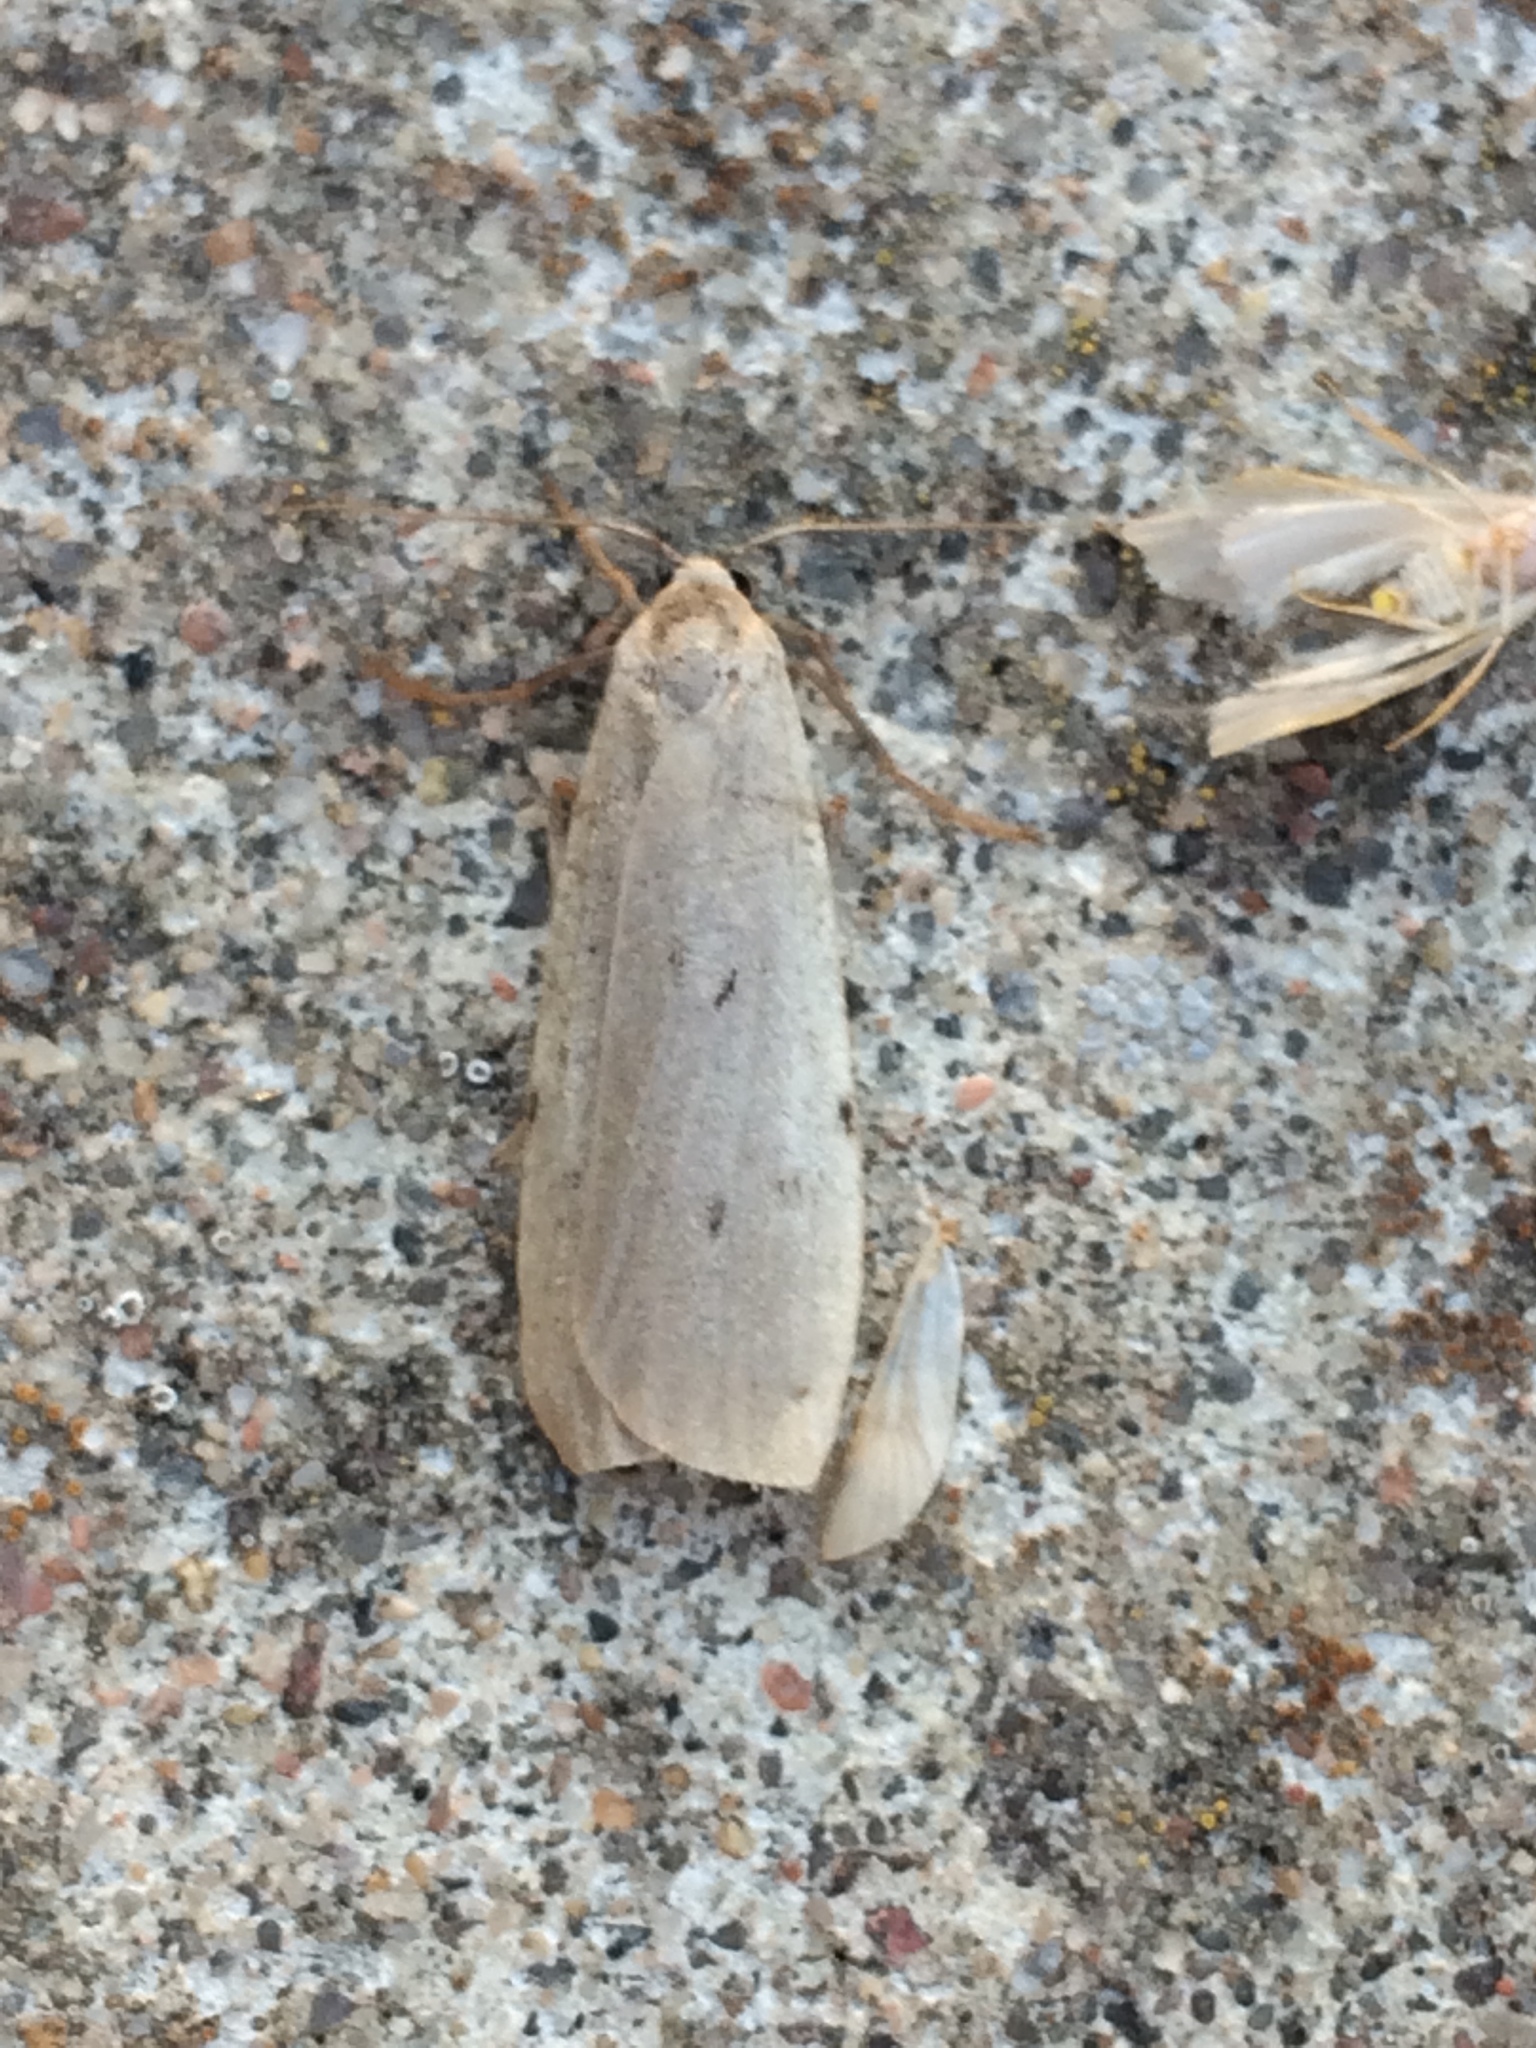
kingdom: Animalia
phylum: Arthropoda
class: Insecta
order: Lepidoptera
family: Erebidae
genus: Pelosia
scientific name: Pelosia muscerda
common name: Dotted footman
